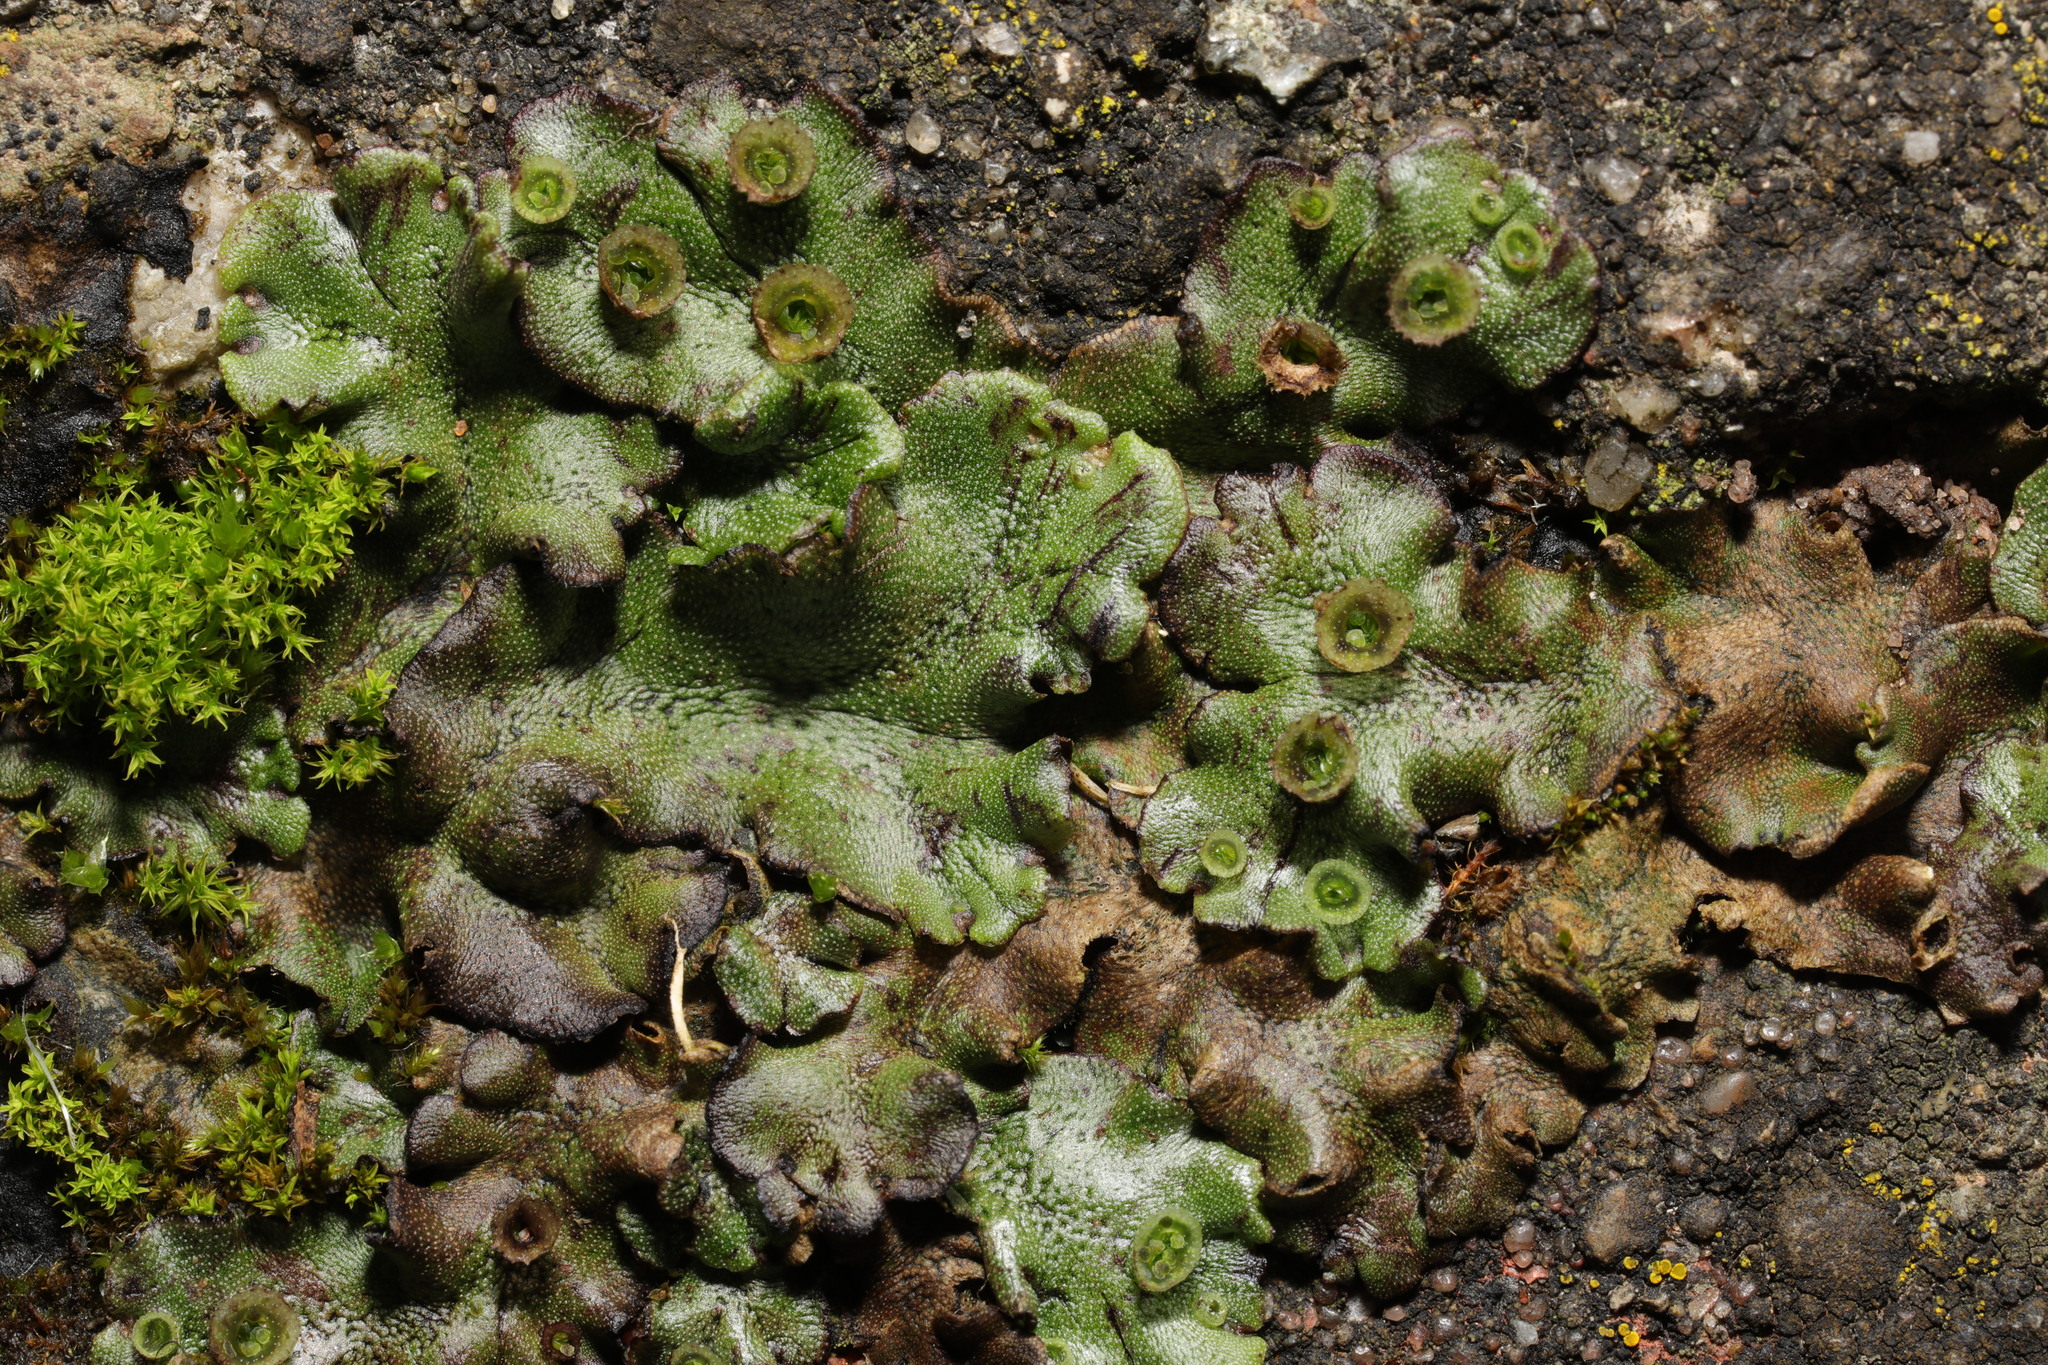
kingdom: Plantae
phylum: Marchantiophyta
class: Marchantiopsida
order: Marchantiales
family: Marchantiaceae
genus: Marchantia
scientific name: Marchantia polymorpha
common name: Common liverwort
